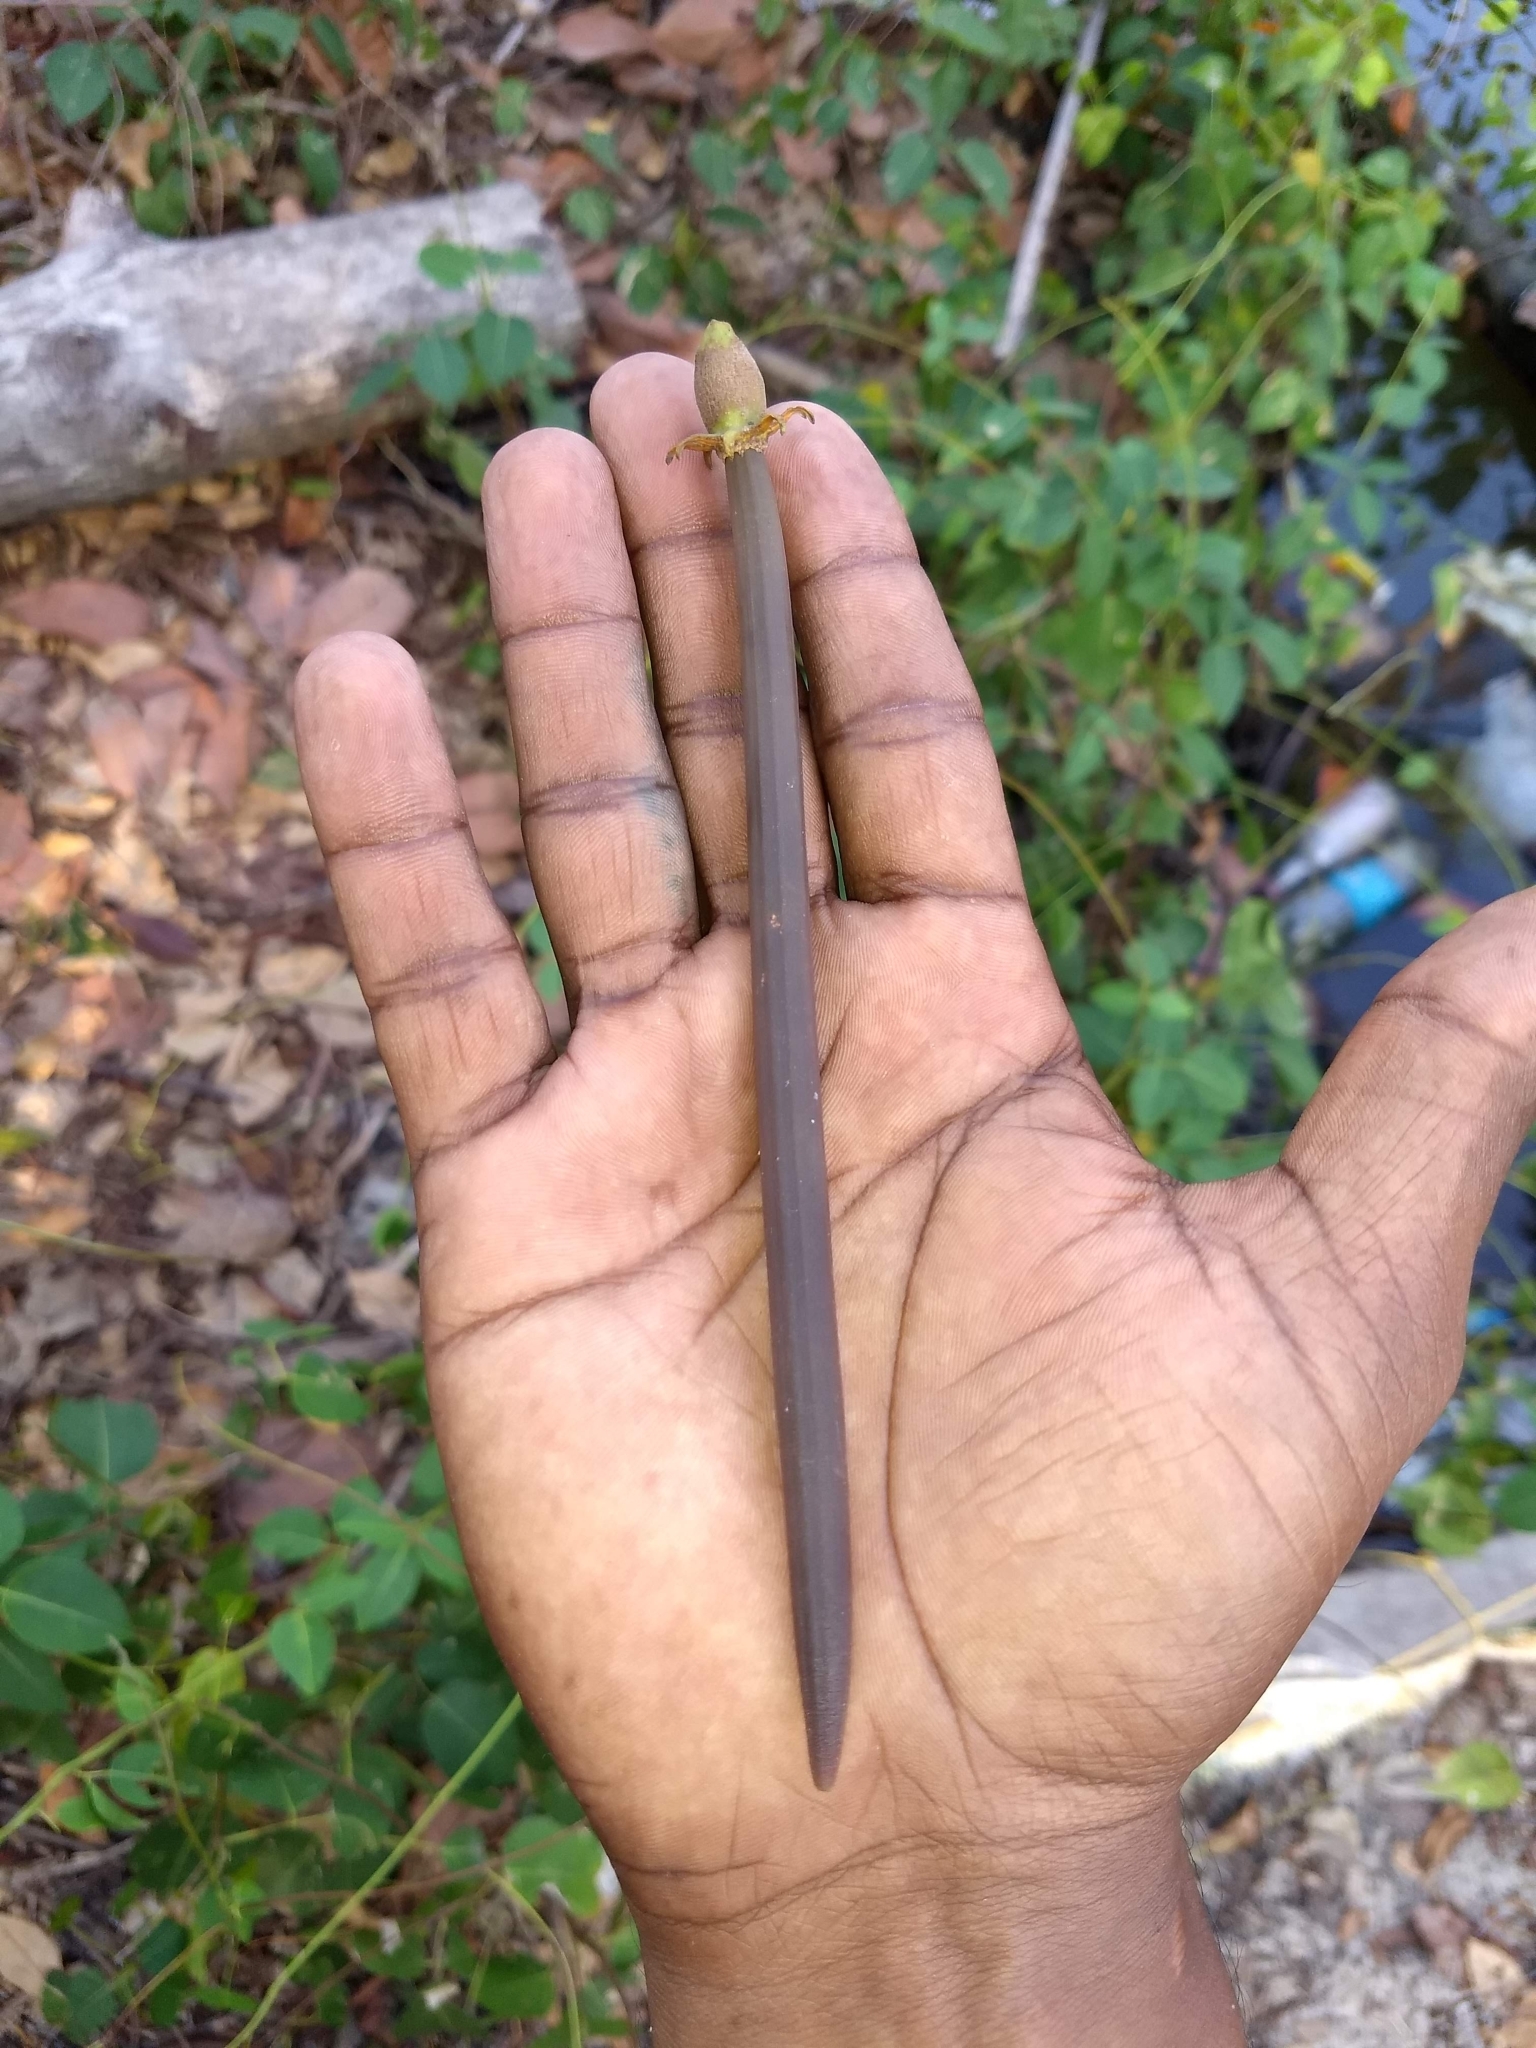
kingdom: Plantae
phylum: Tracheophyta
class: Magnoliopsida
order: Malpighiales
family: Rhizophoraceae
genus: Bruguiera
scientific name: Bruguiera cylindrica
